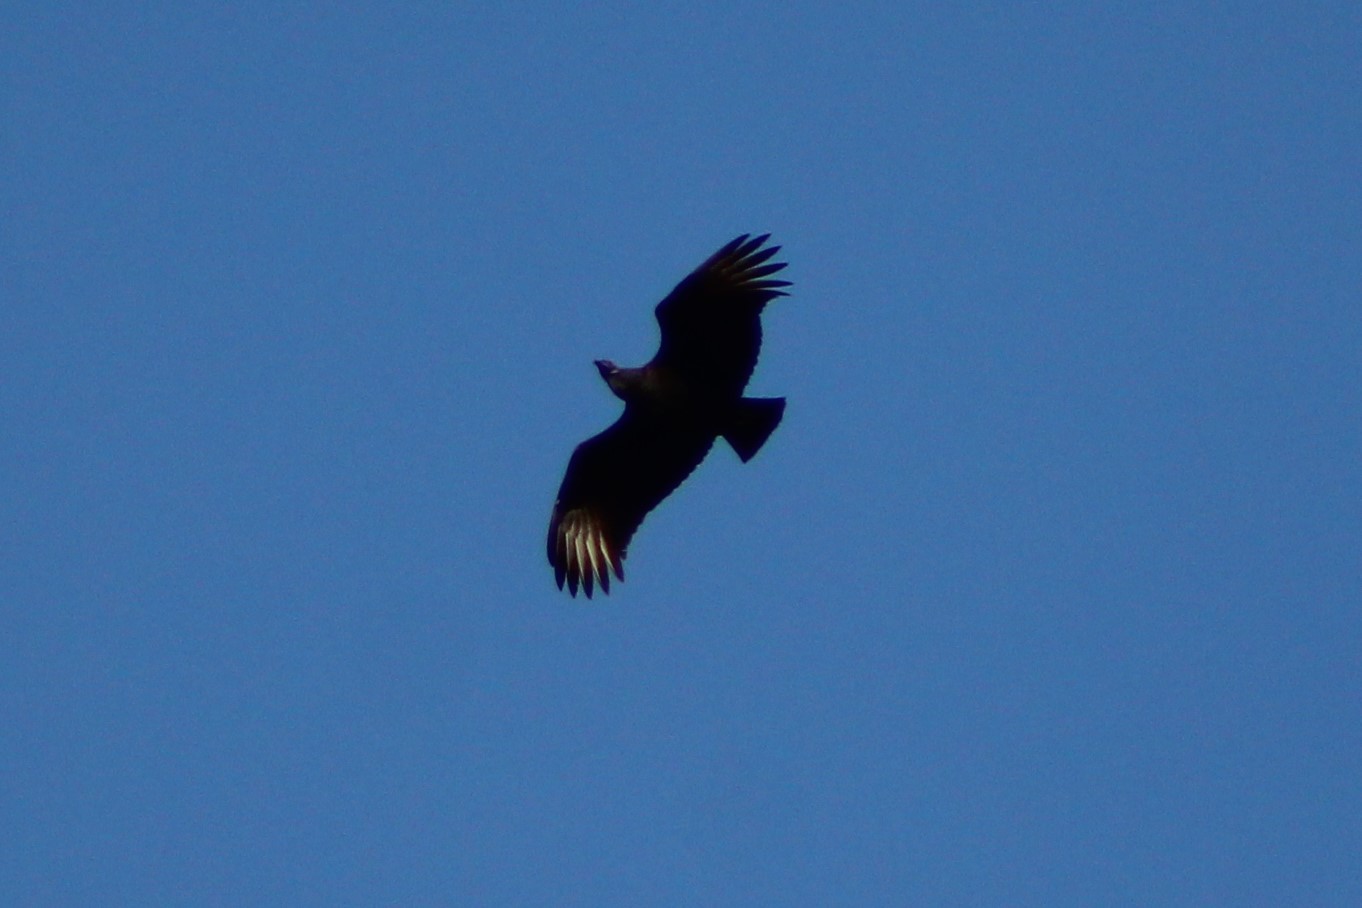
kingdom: Animalia
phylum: Chordata
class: Aves
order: Accipitriformes
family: Cathartidae
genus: Coragyps
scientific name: Coragyps atratus
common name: Black vulture
